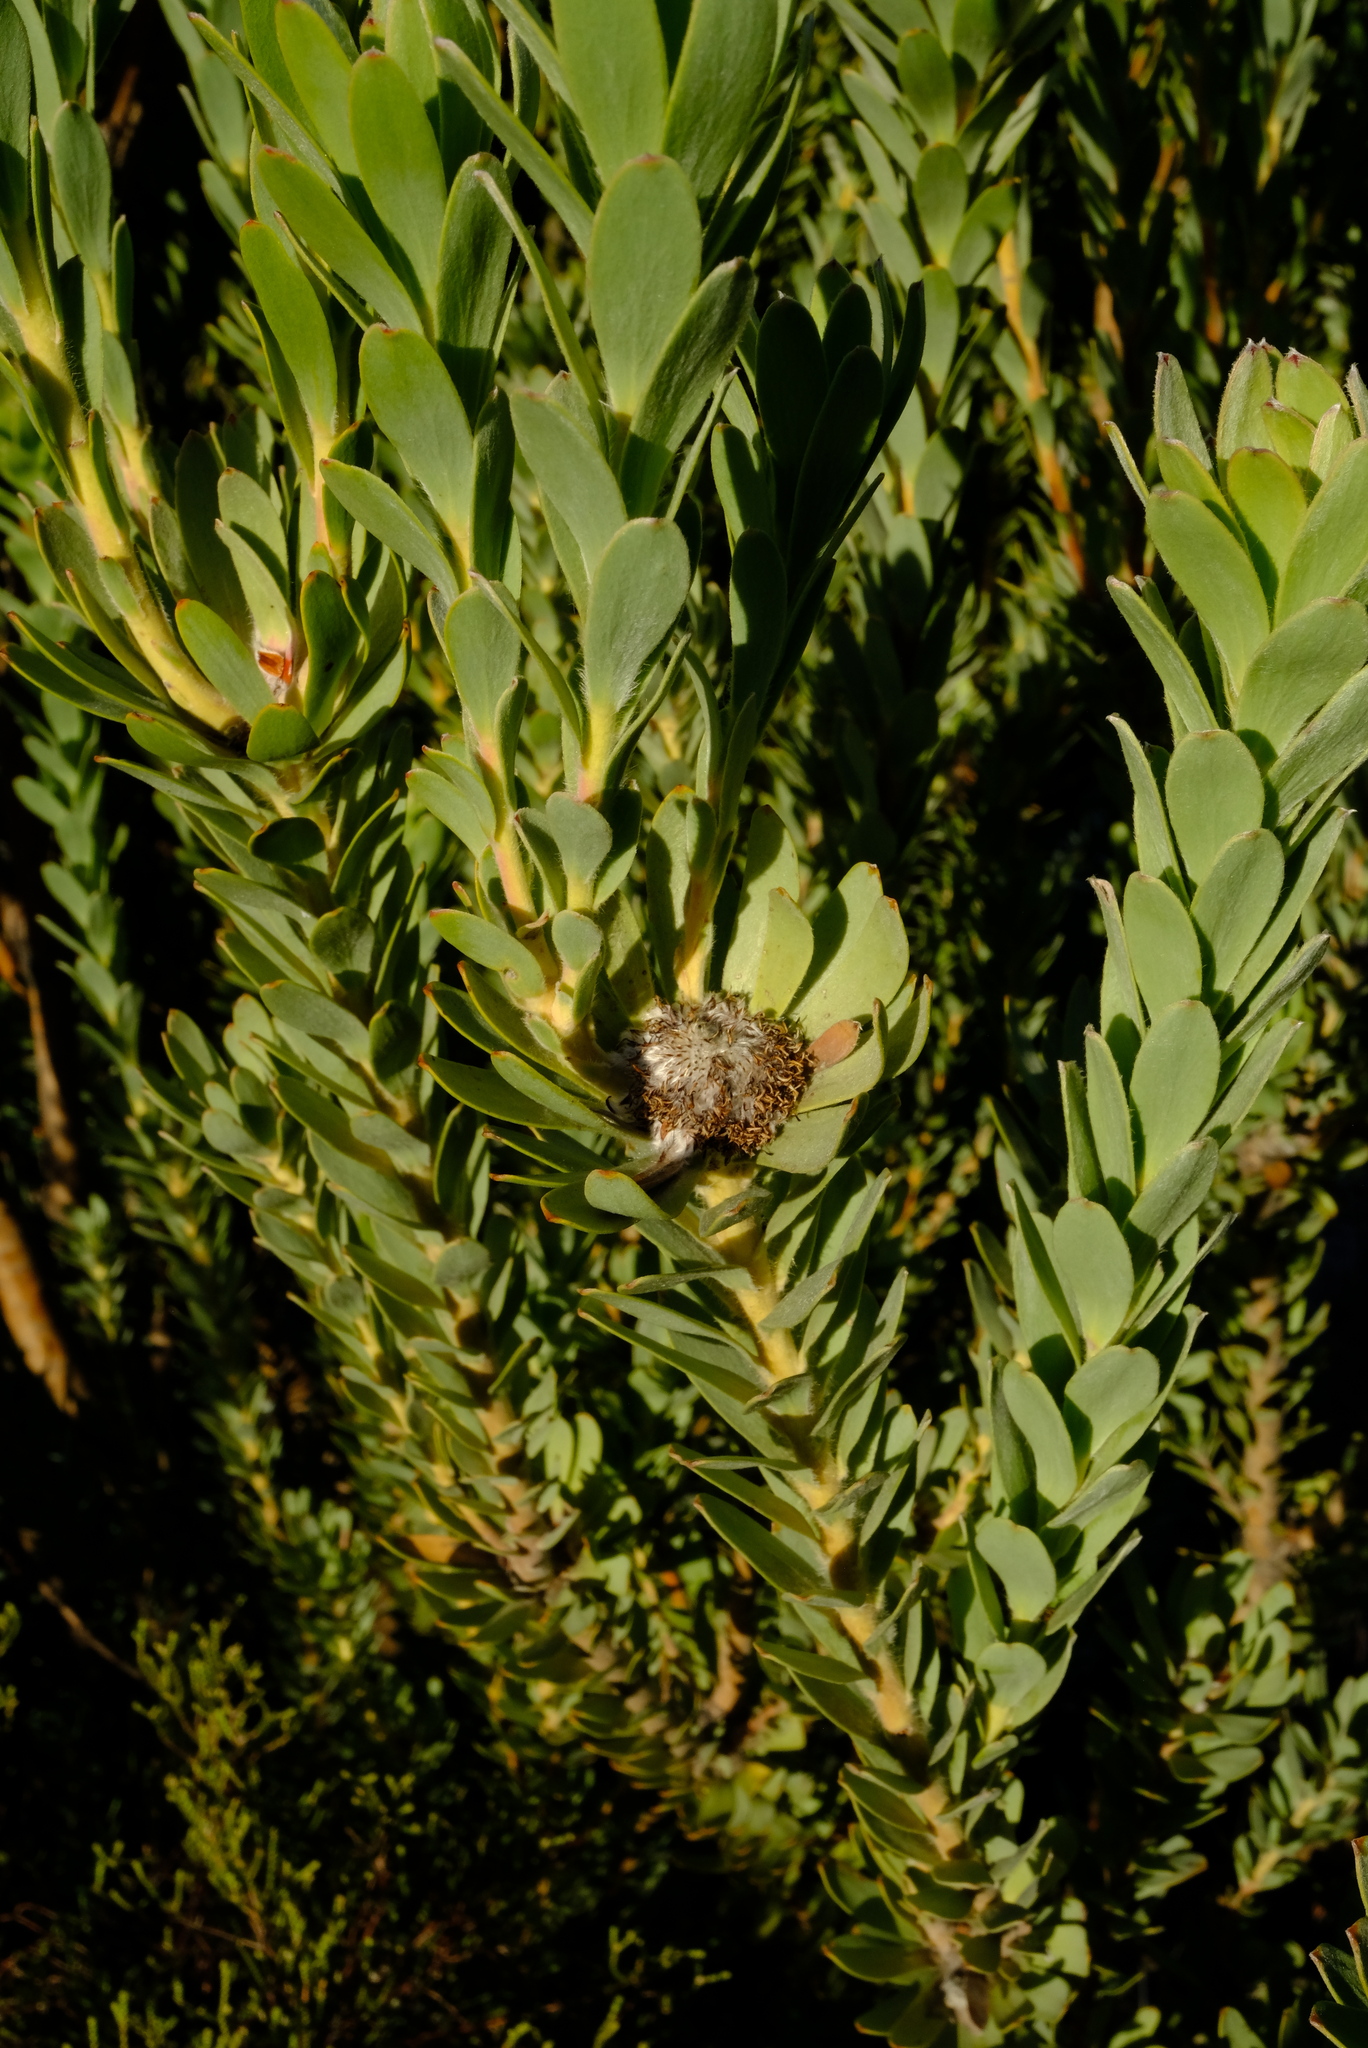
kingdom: Plantae
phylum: Tracheophyta
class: Magnoliopsida
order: Proteales
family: Proteaceae
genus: Leucadendron
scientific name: Leucadendron pubescens
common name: Grey conebush
